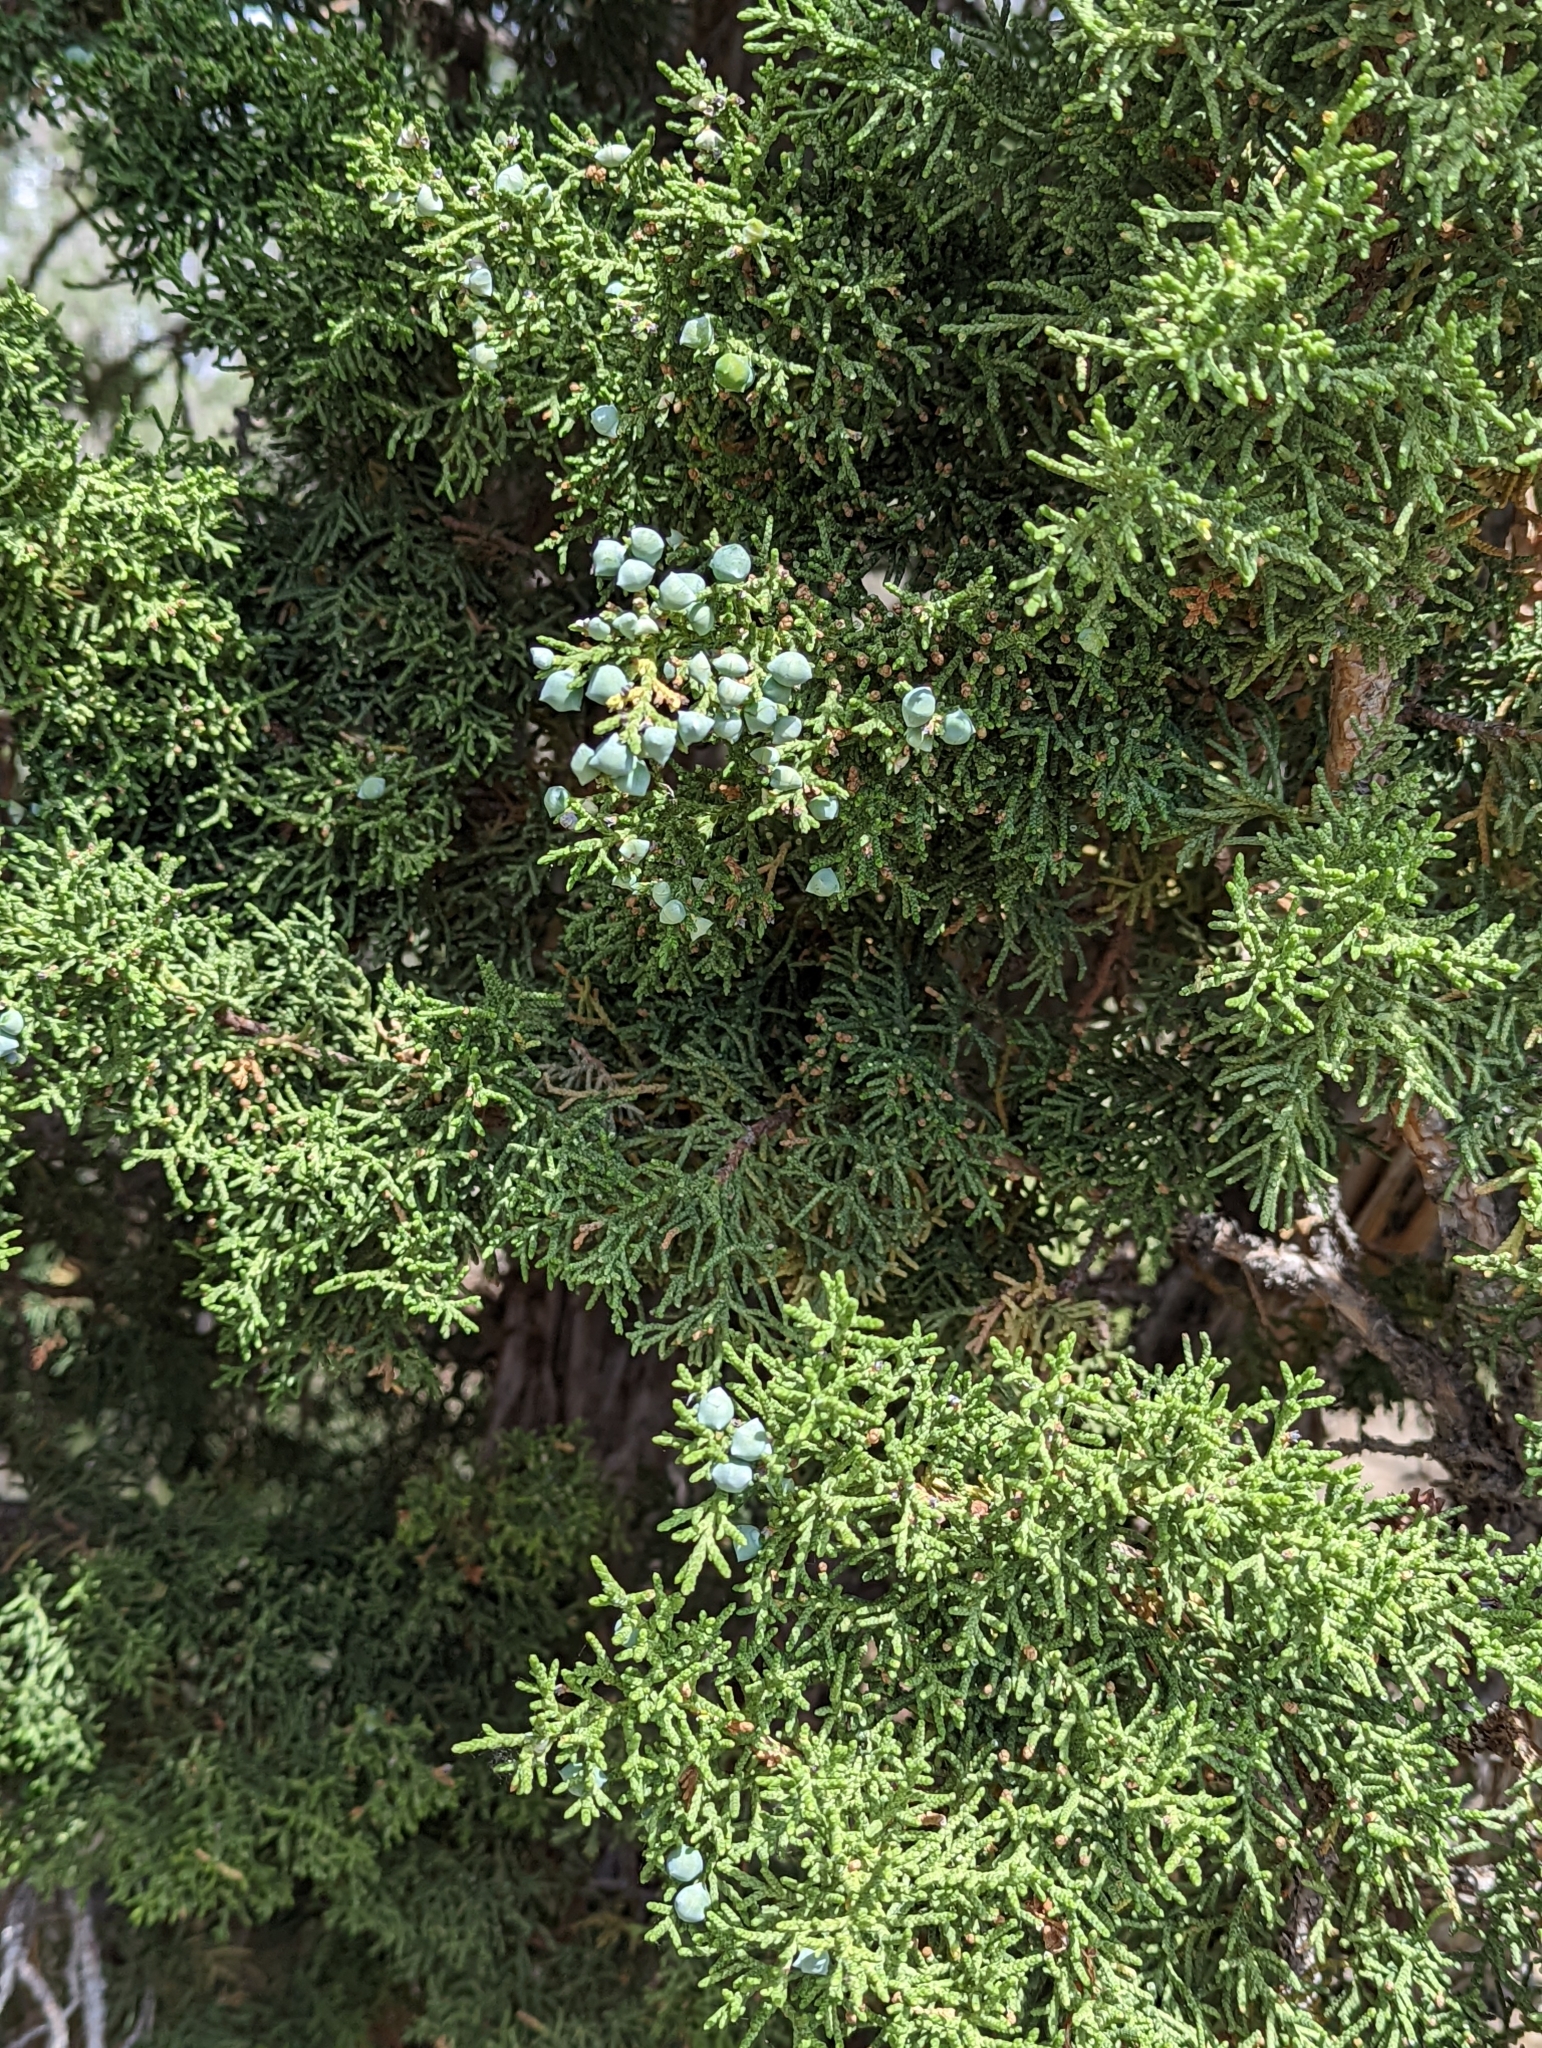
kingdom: Plantae
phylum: Tracheophyta
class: Pinopsida
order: Pinales
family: Cupressaceae
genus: Juniperus
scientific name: Juniperus osteosperma
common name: Utah juniper
